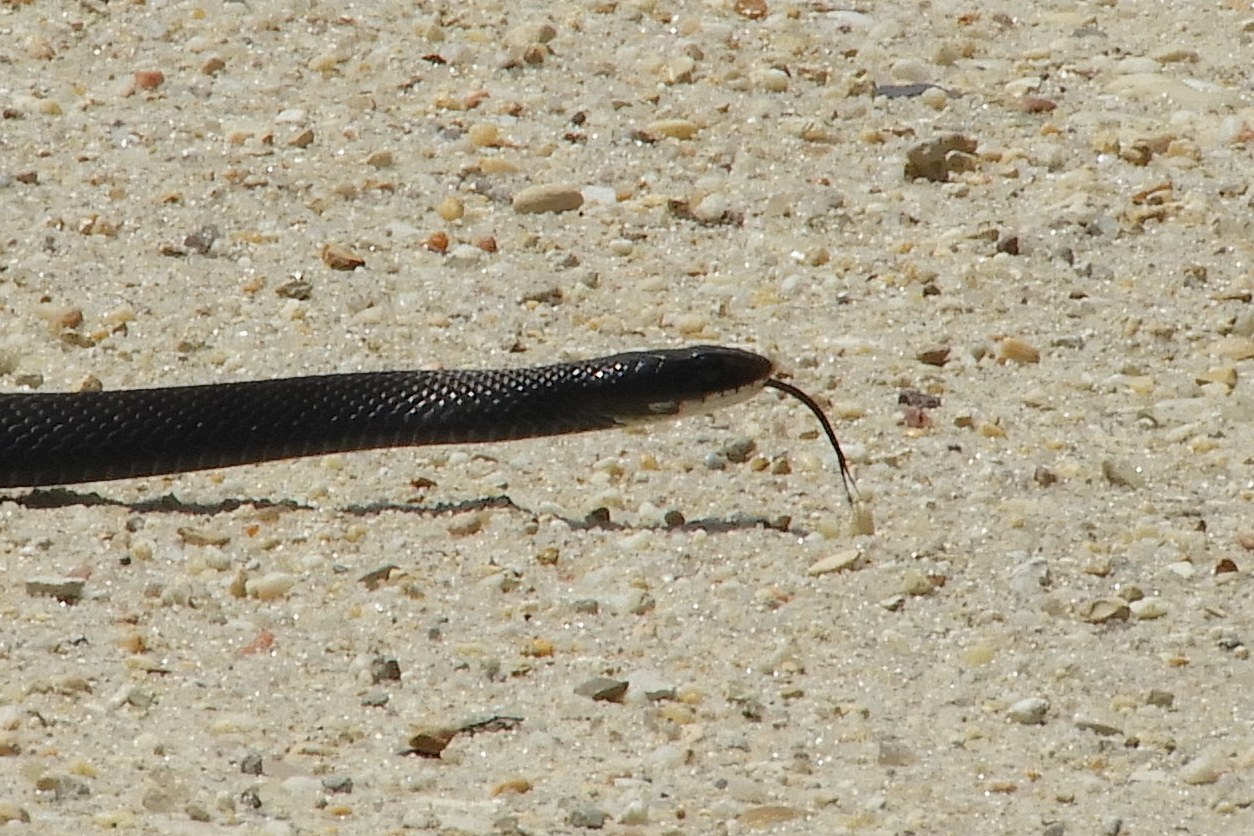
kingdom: Animalia
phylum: Chordata
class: Squamata
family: Colubridae
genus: Coluber
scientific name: Coluber constrictor
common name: Eastern racer
